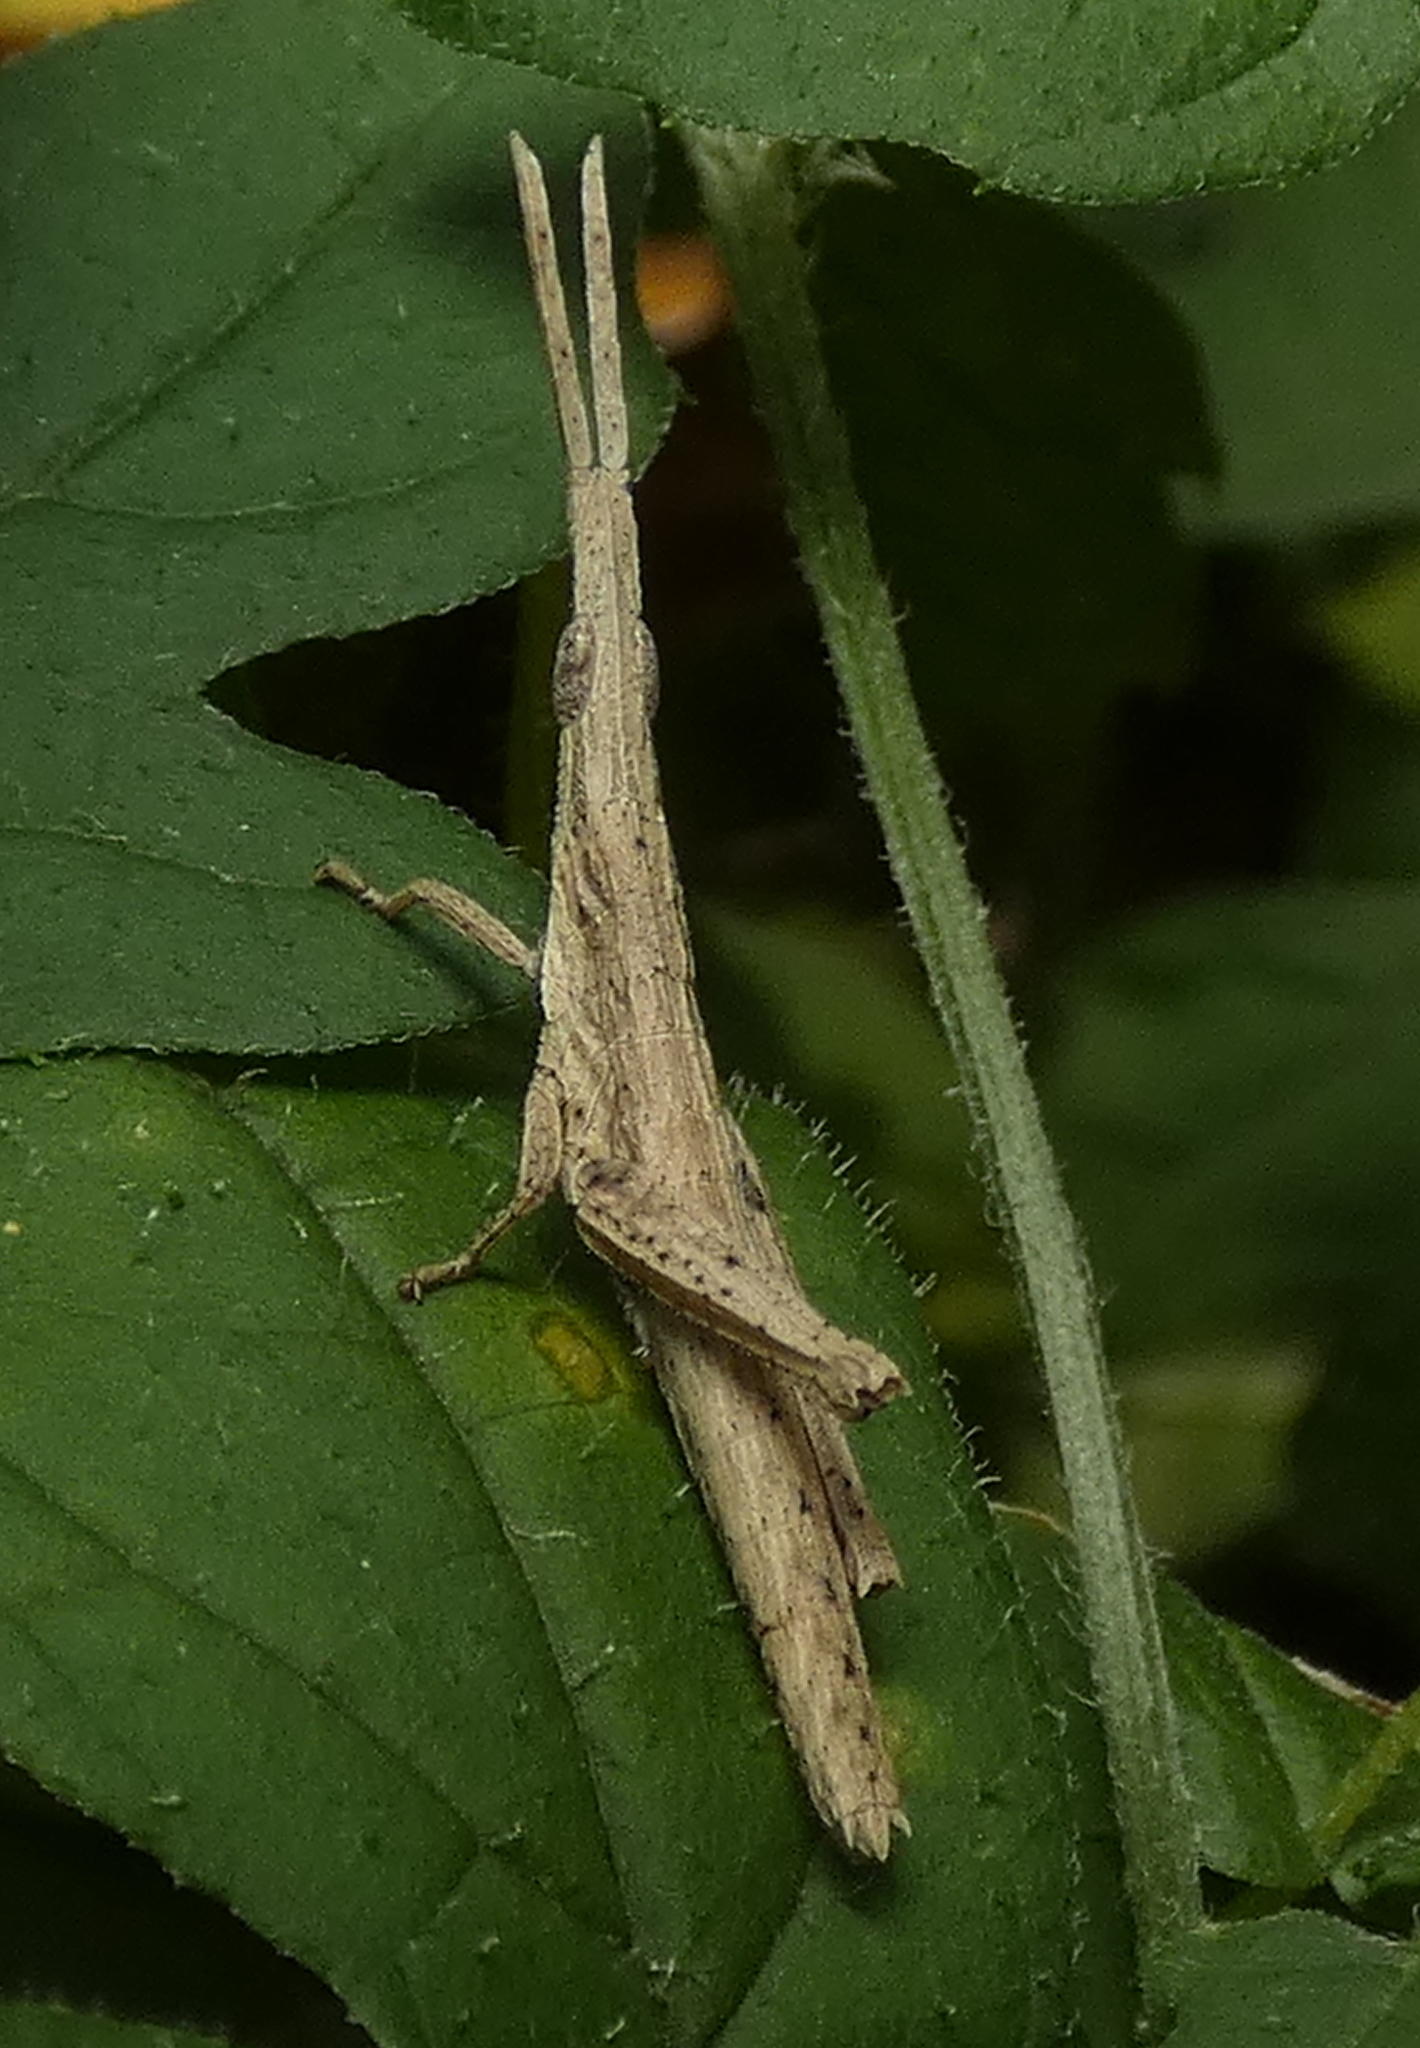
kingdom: Animalia
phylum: Arthropoda
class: Insecta
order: Orthoptera
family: Pyrgomorphidae
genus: Algete
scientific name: Algete brunneri
